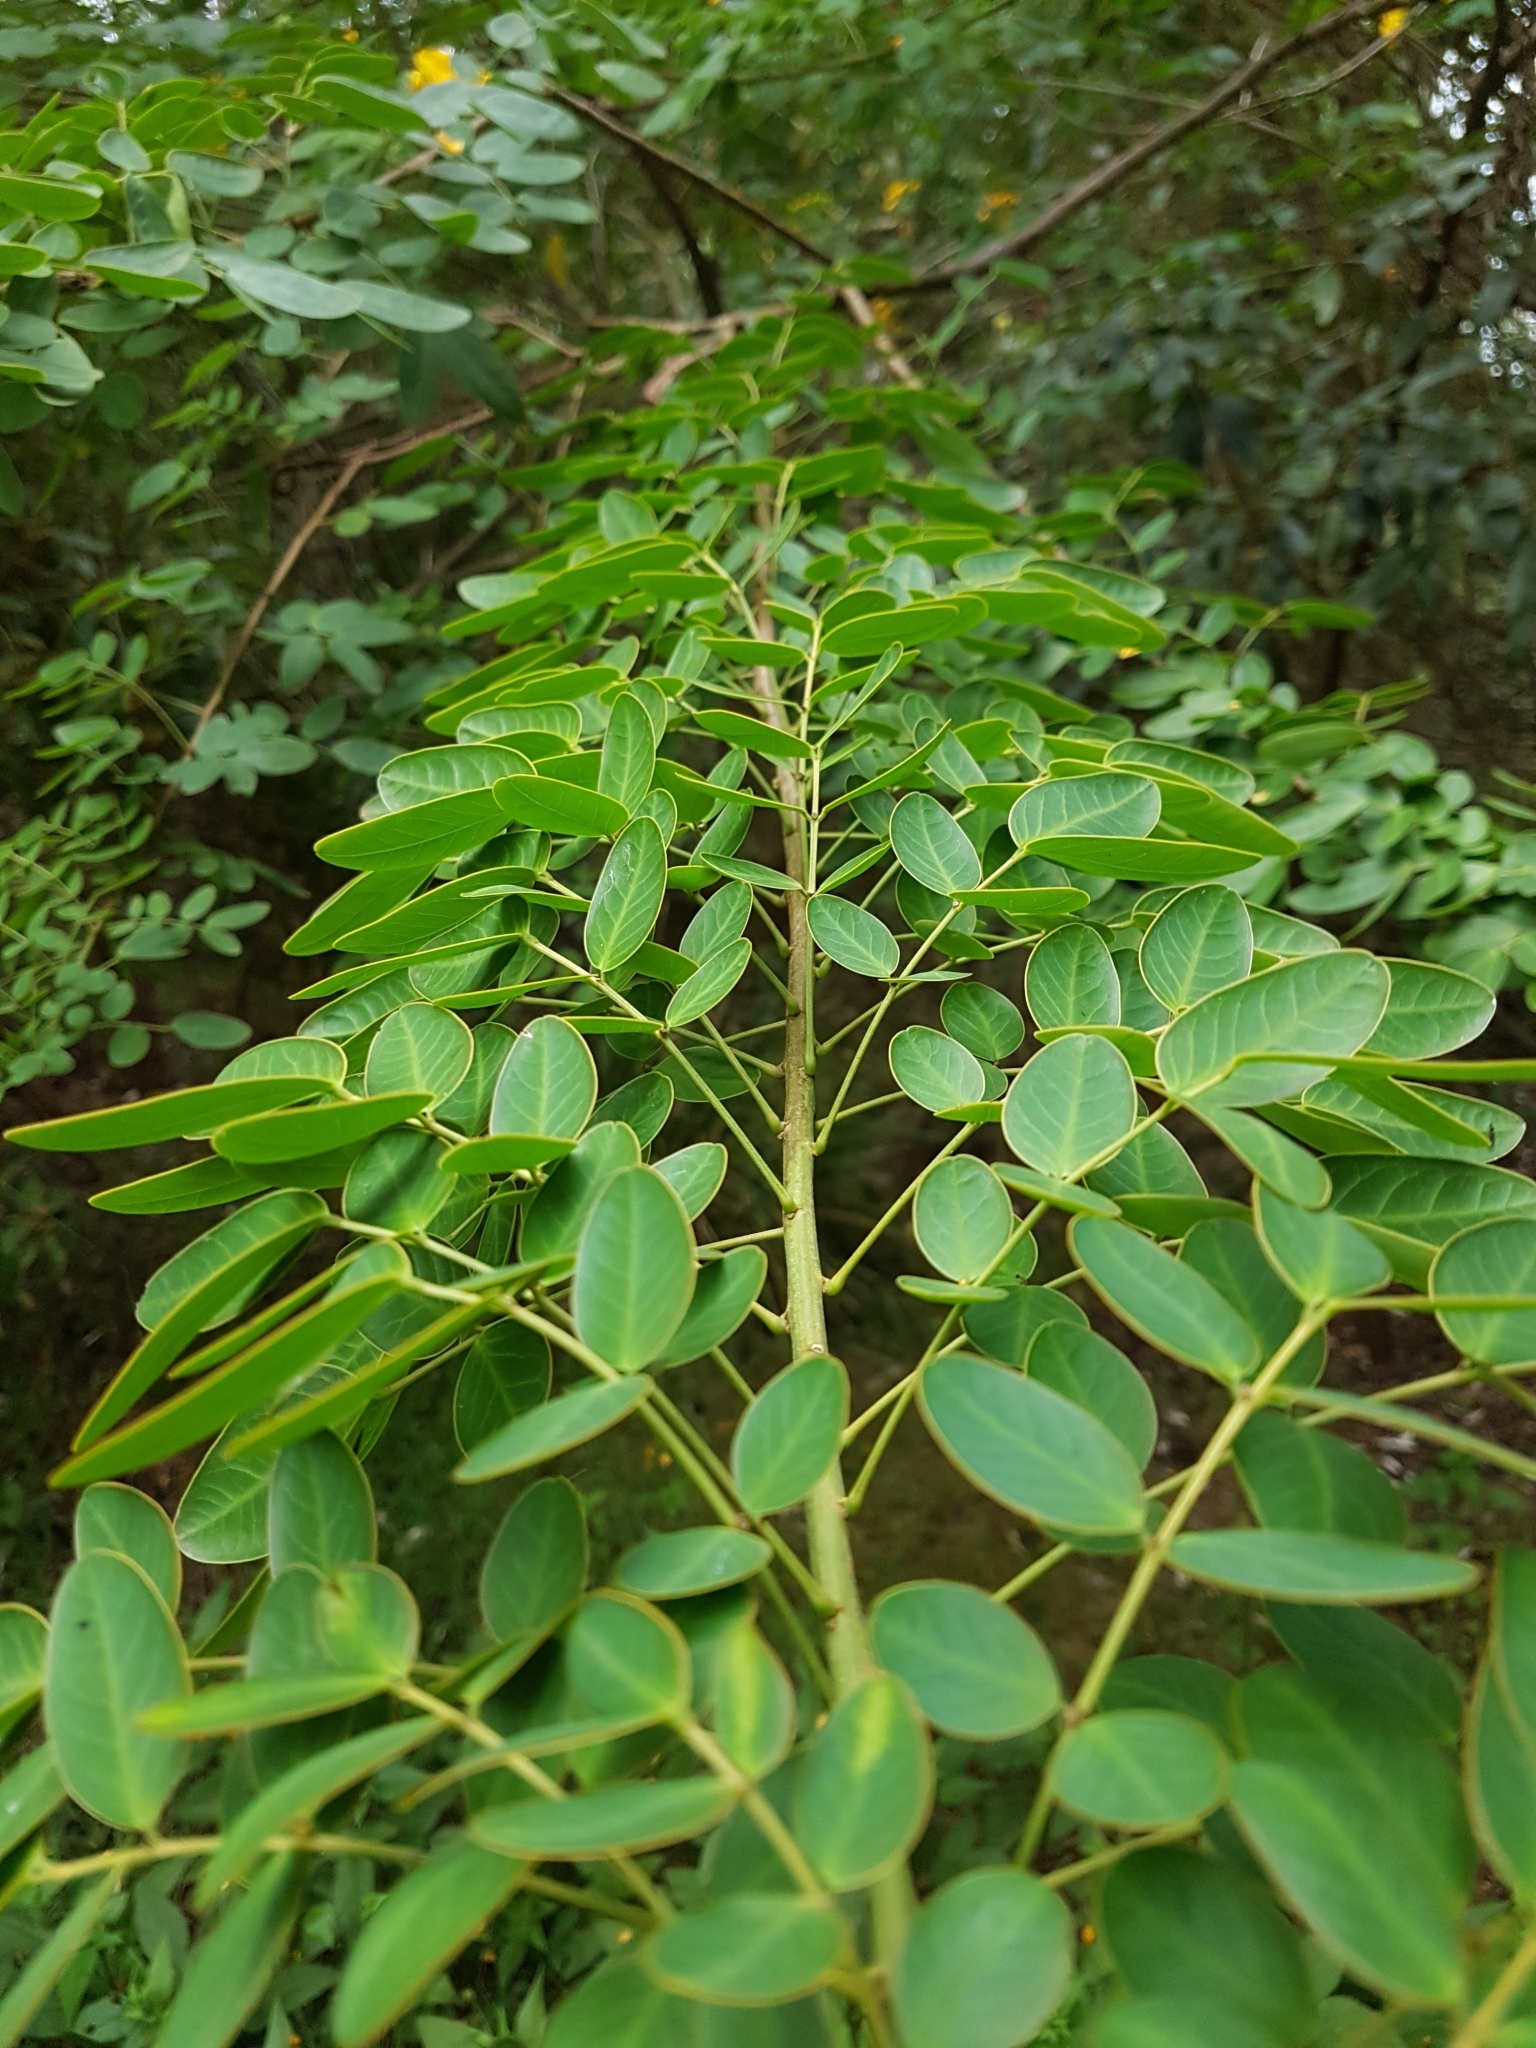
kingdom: Plantae
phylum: Tracheophyta
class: Magnoliopsida
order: Fabales
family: Fabaceae
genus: Senna
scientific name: Senna pendula
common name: Easter cassia
